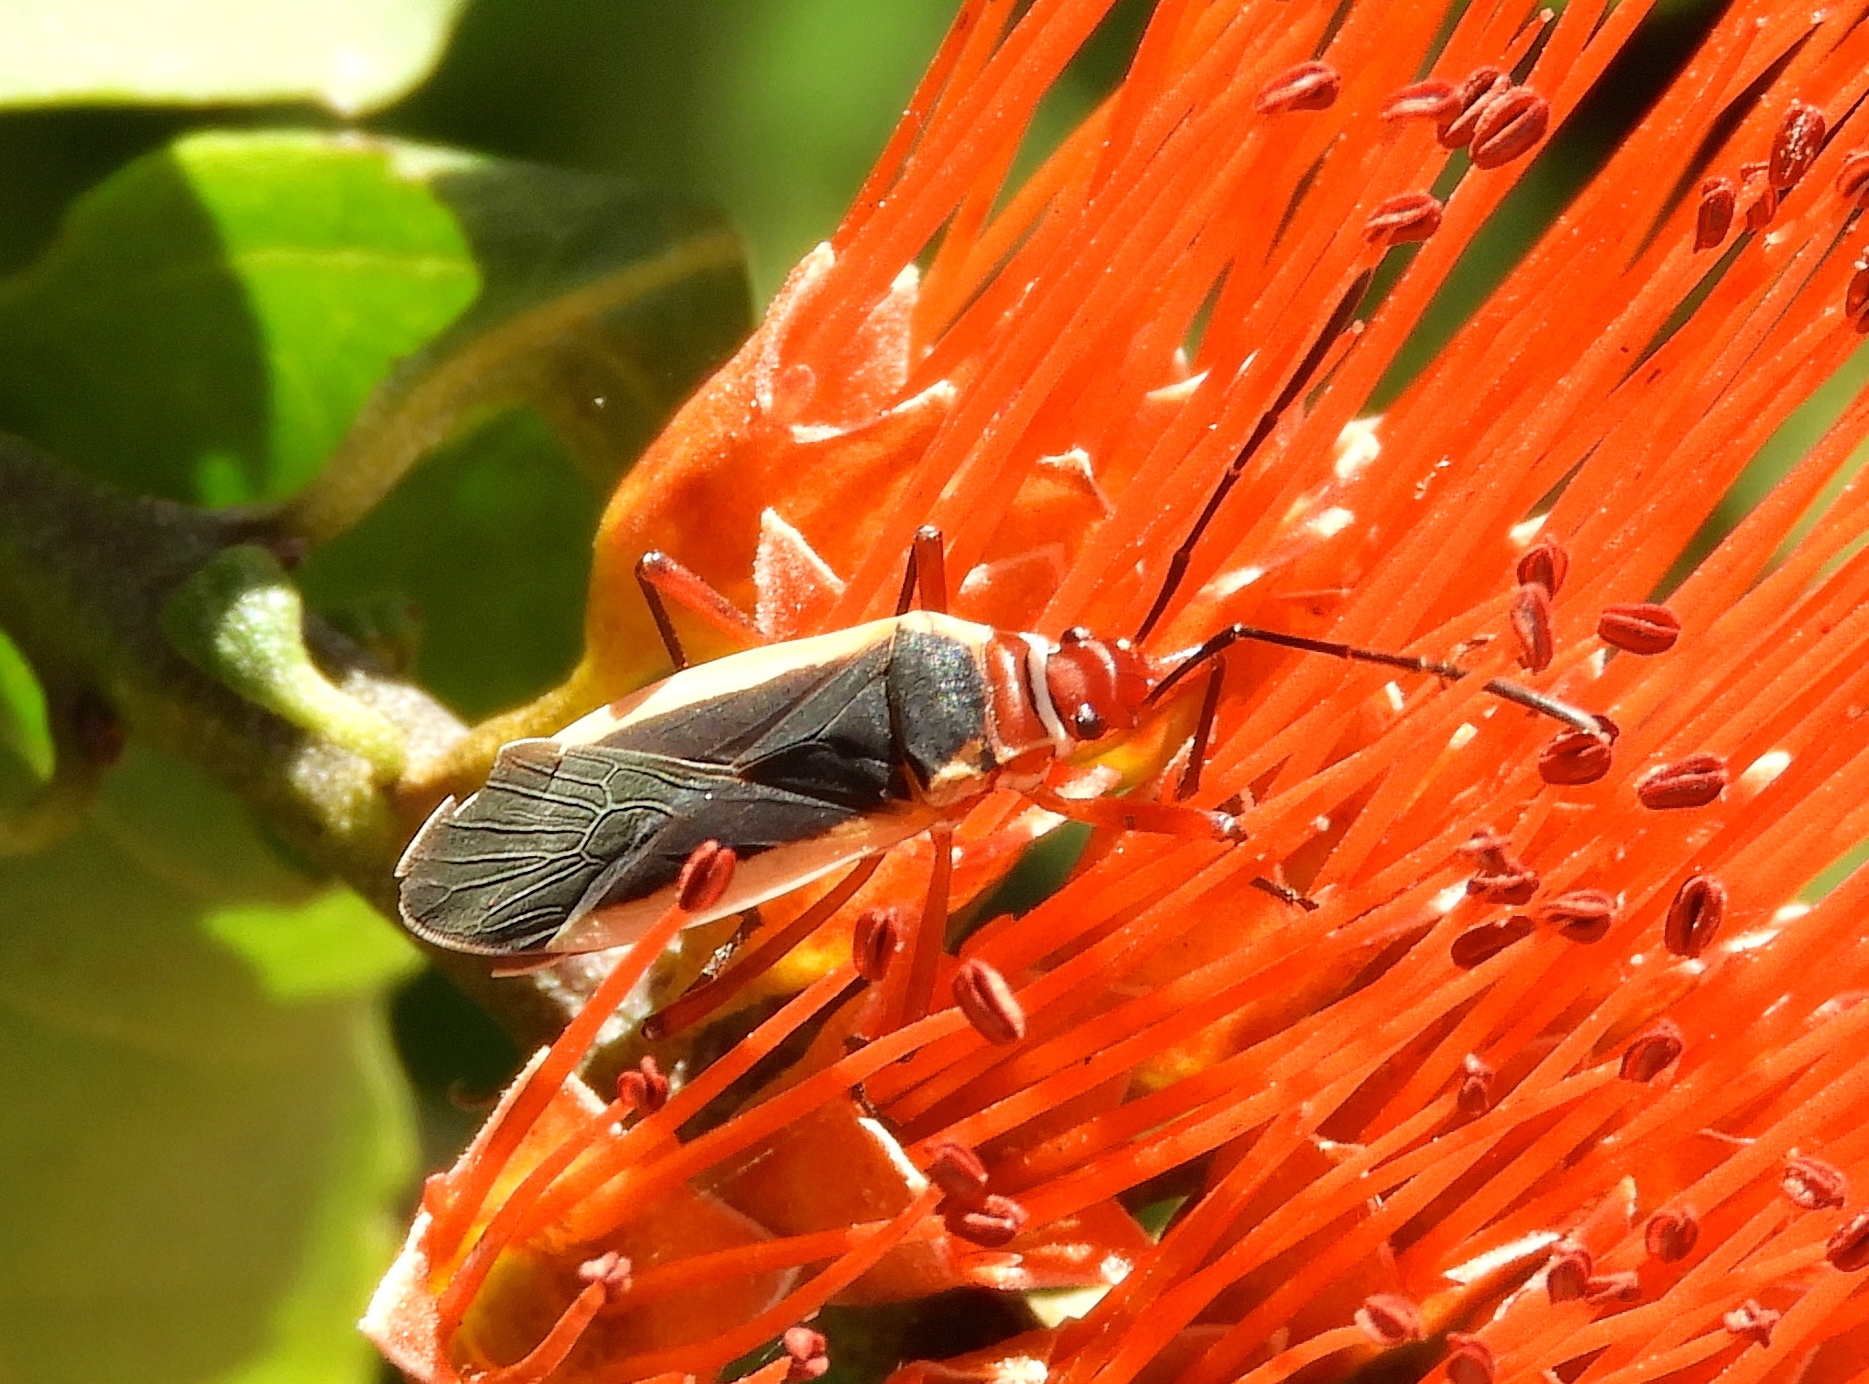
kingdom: Animalia
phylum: Arthropoda
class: Insecta
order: Hemiptera
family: Pyrrhocoridae
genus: Dysdercus
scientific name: Dysdercus
